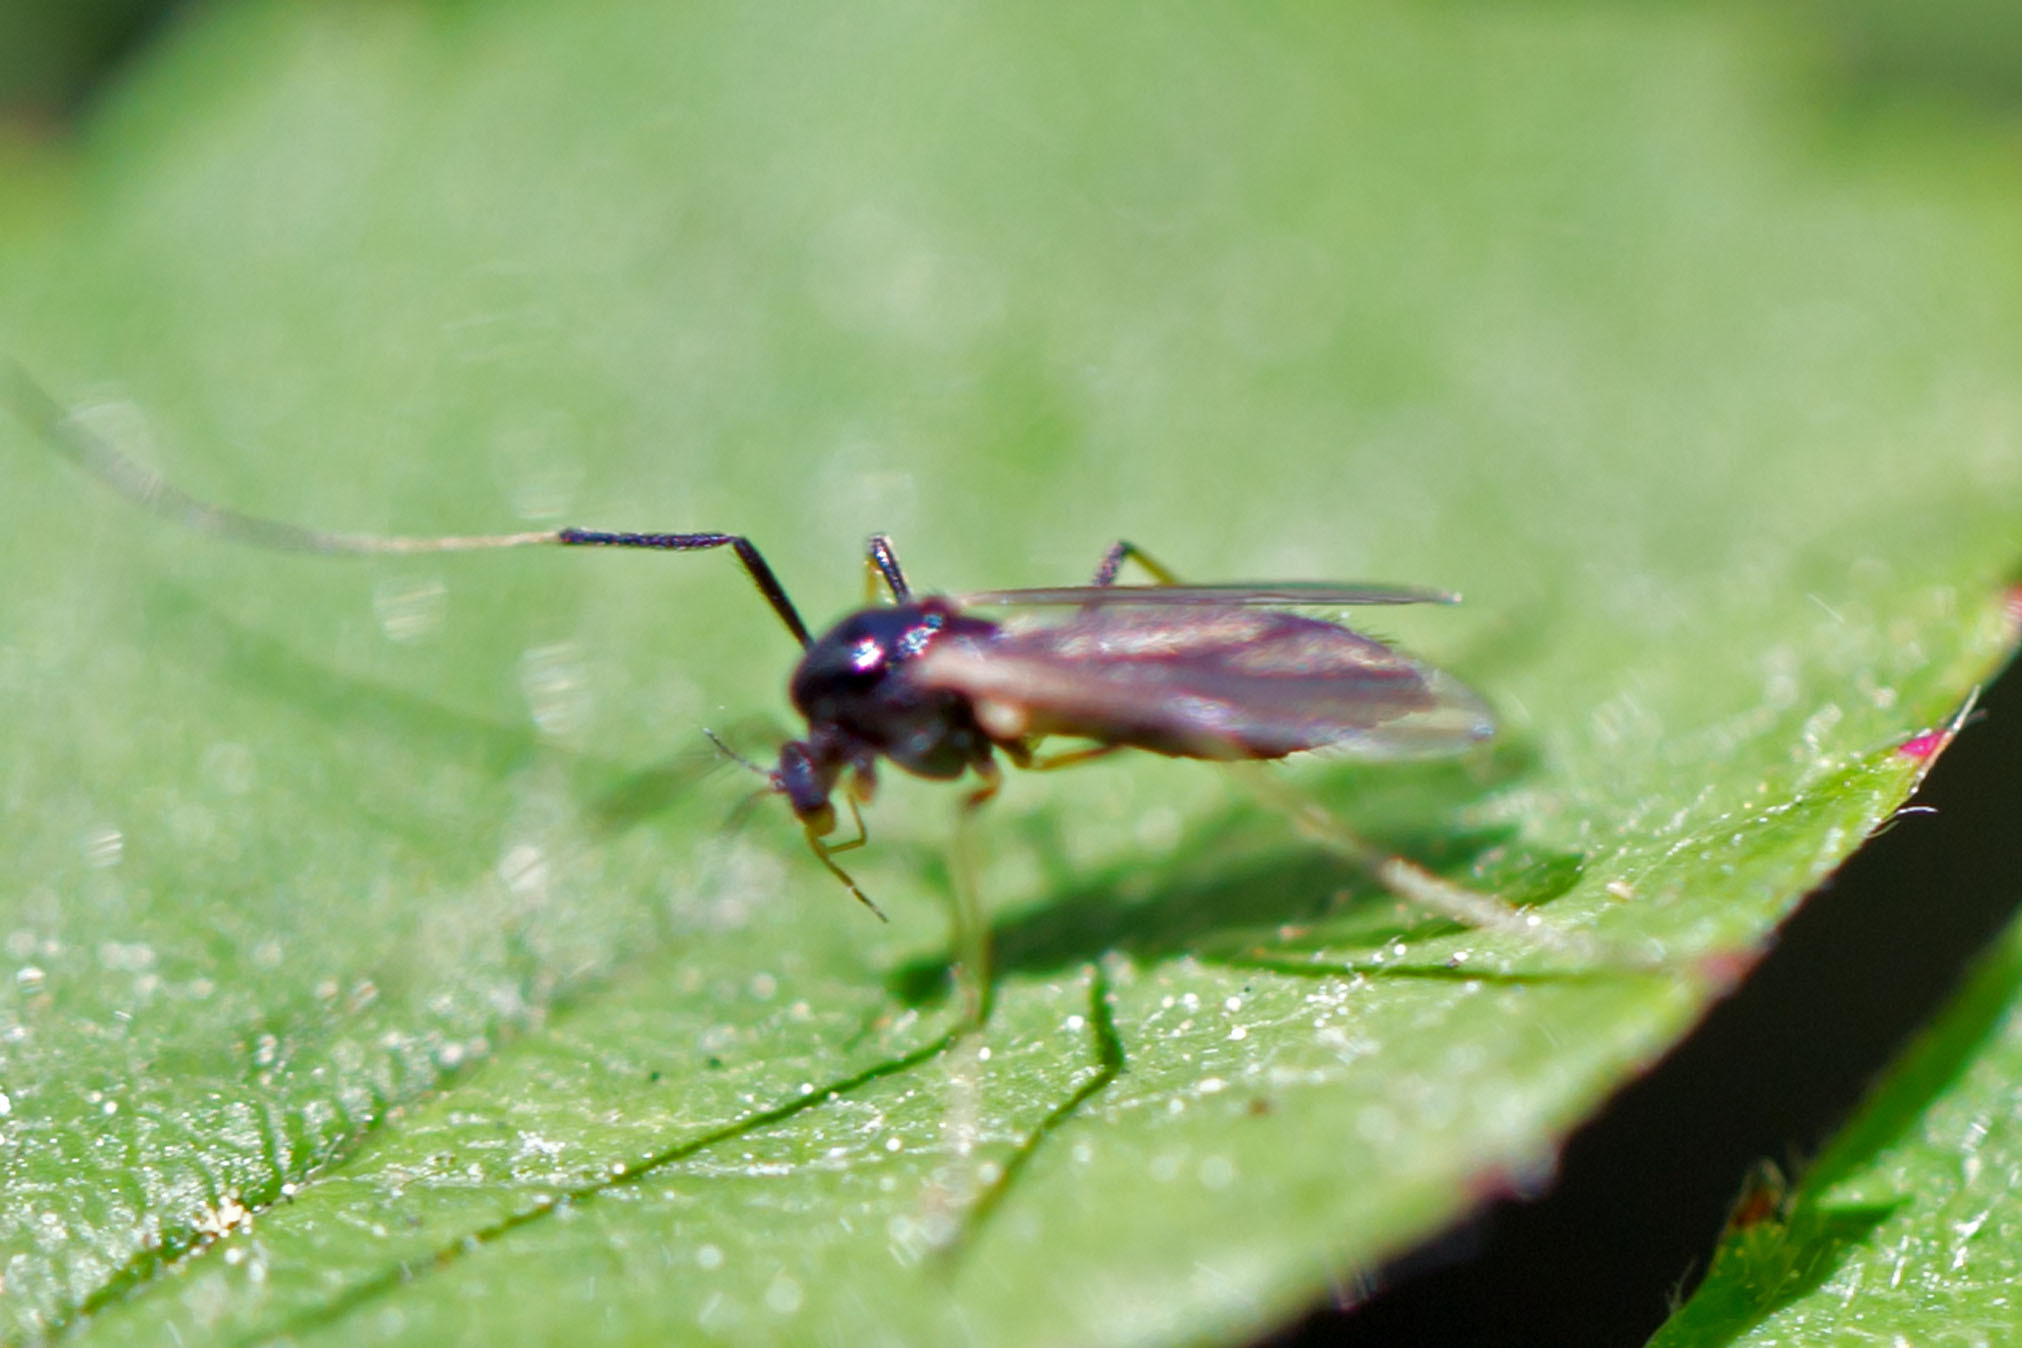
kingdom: Animalia
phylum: Arthropoda
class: Insecta
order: Diptera
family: Chironomidae
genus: Paratendipes
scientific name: Paratendipes albimanus
